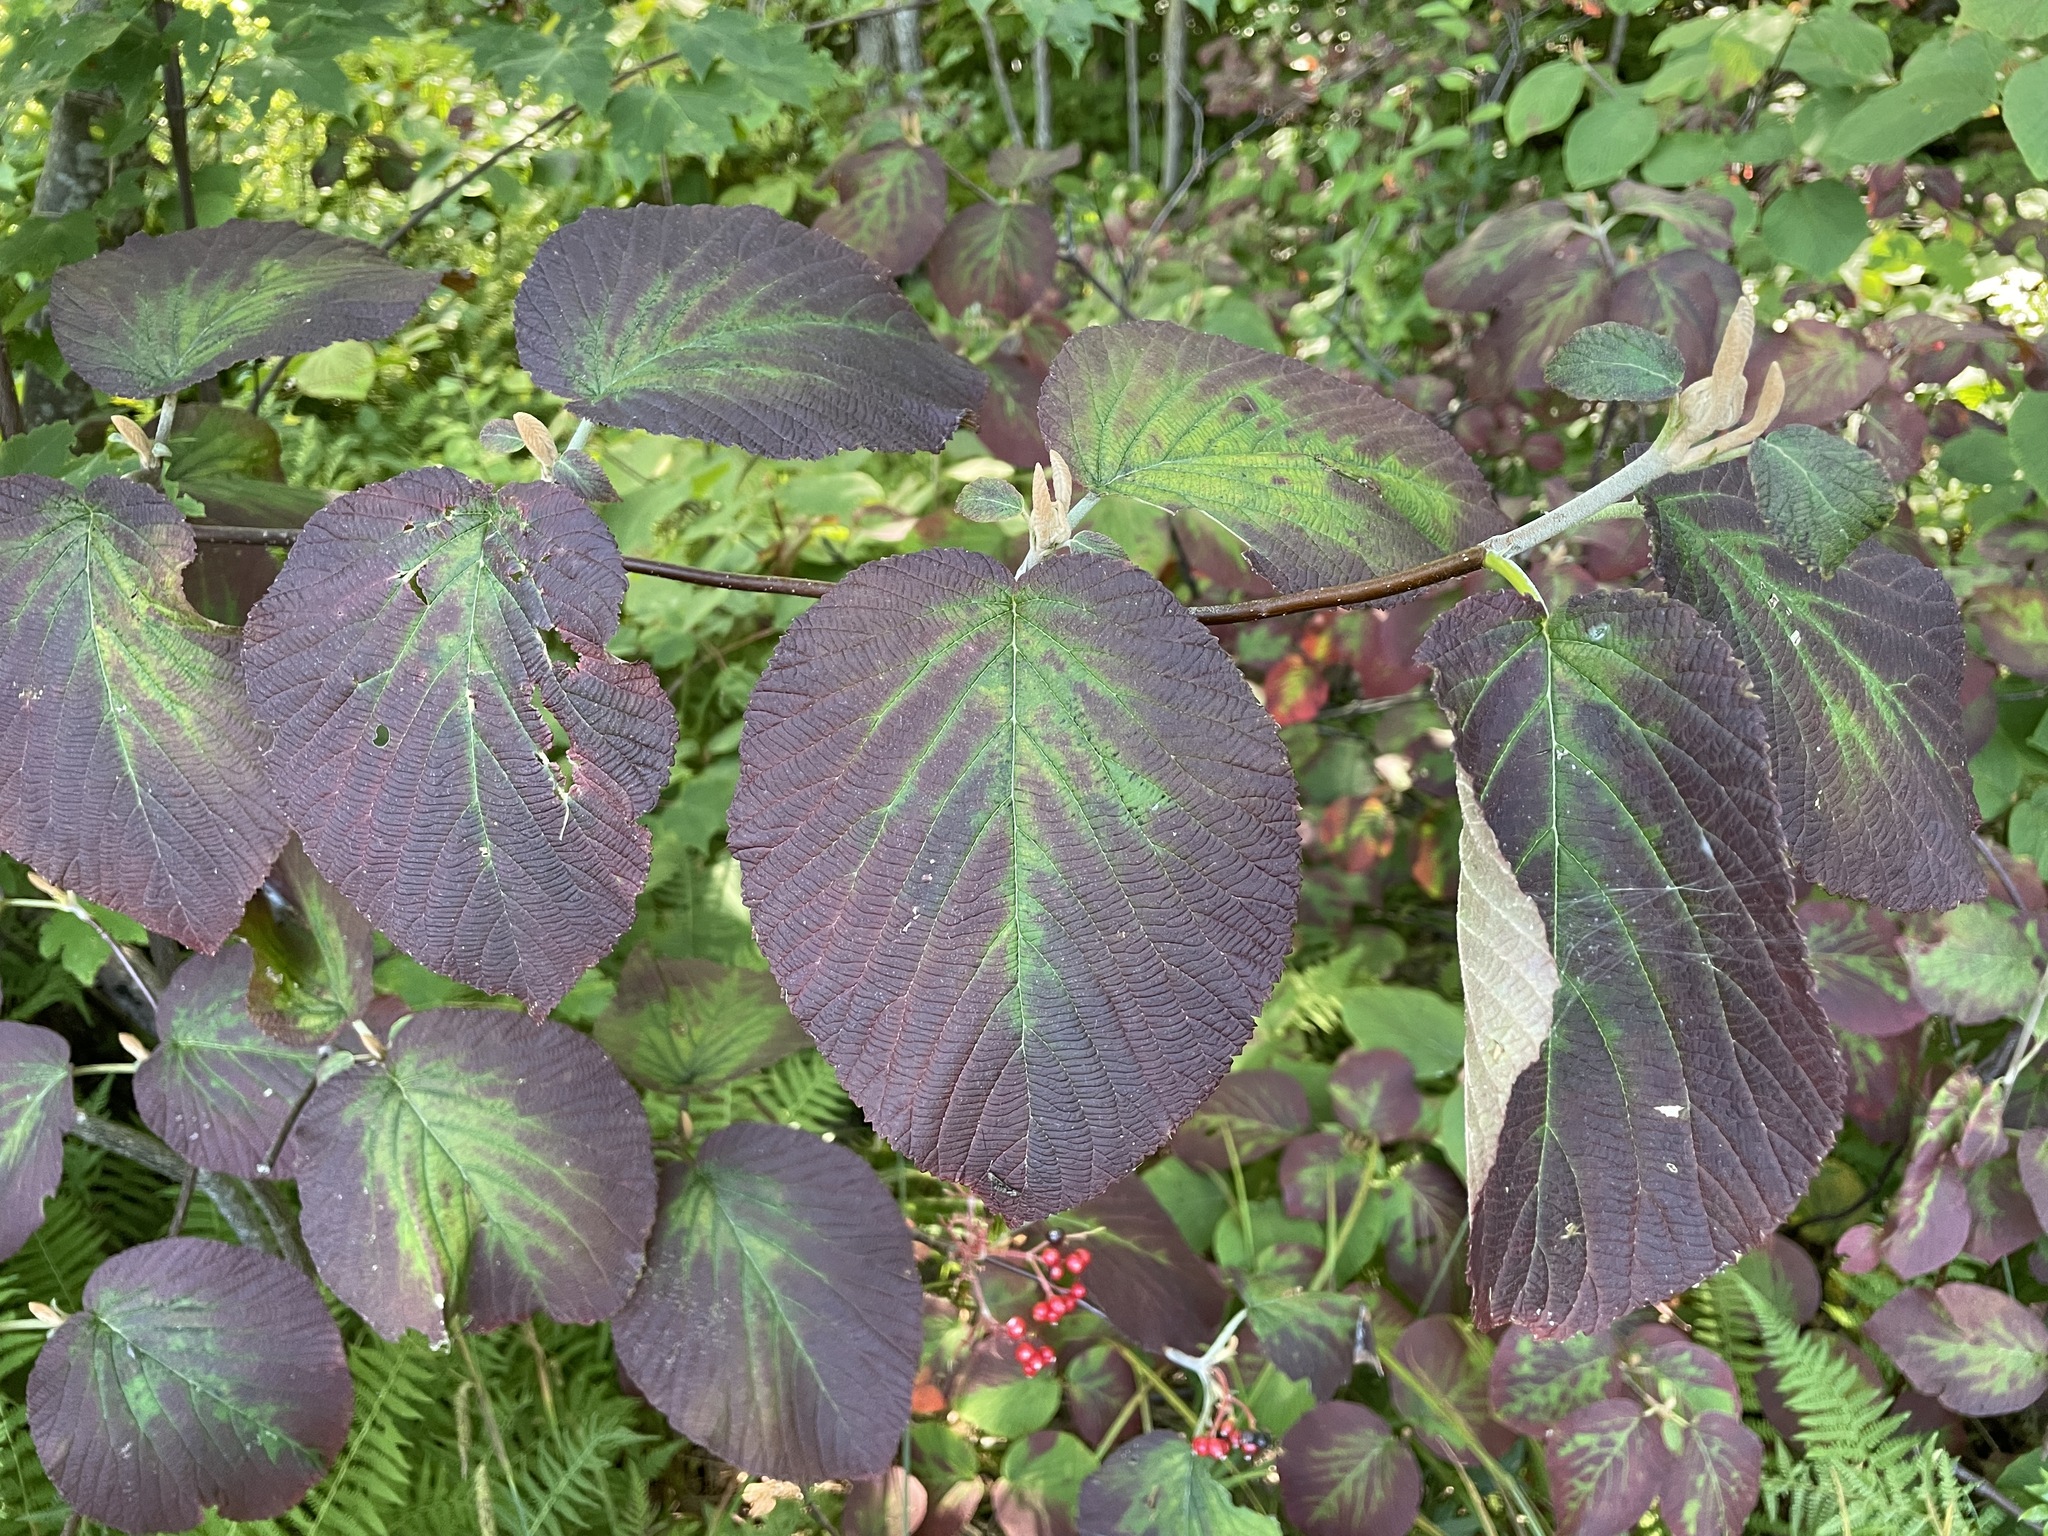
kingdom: Plantae
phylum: Tracheophyta
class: Magnoliopsida
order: Dipsacales
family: Viburnaceae
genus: Viburnum
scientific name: Viburnum lantanoides
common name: Hobblebush
